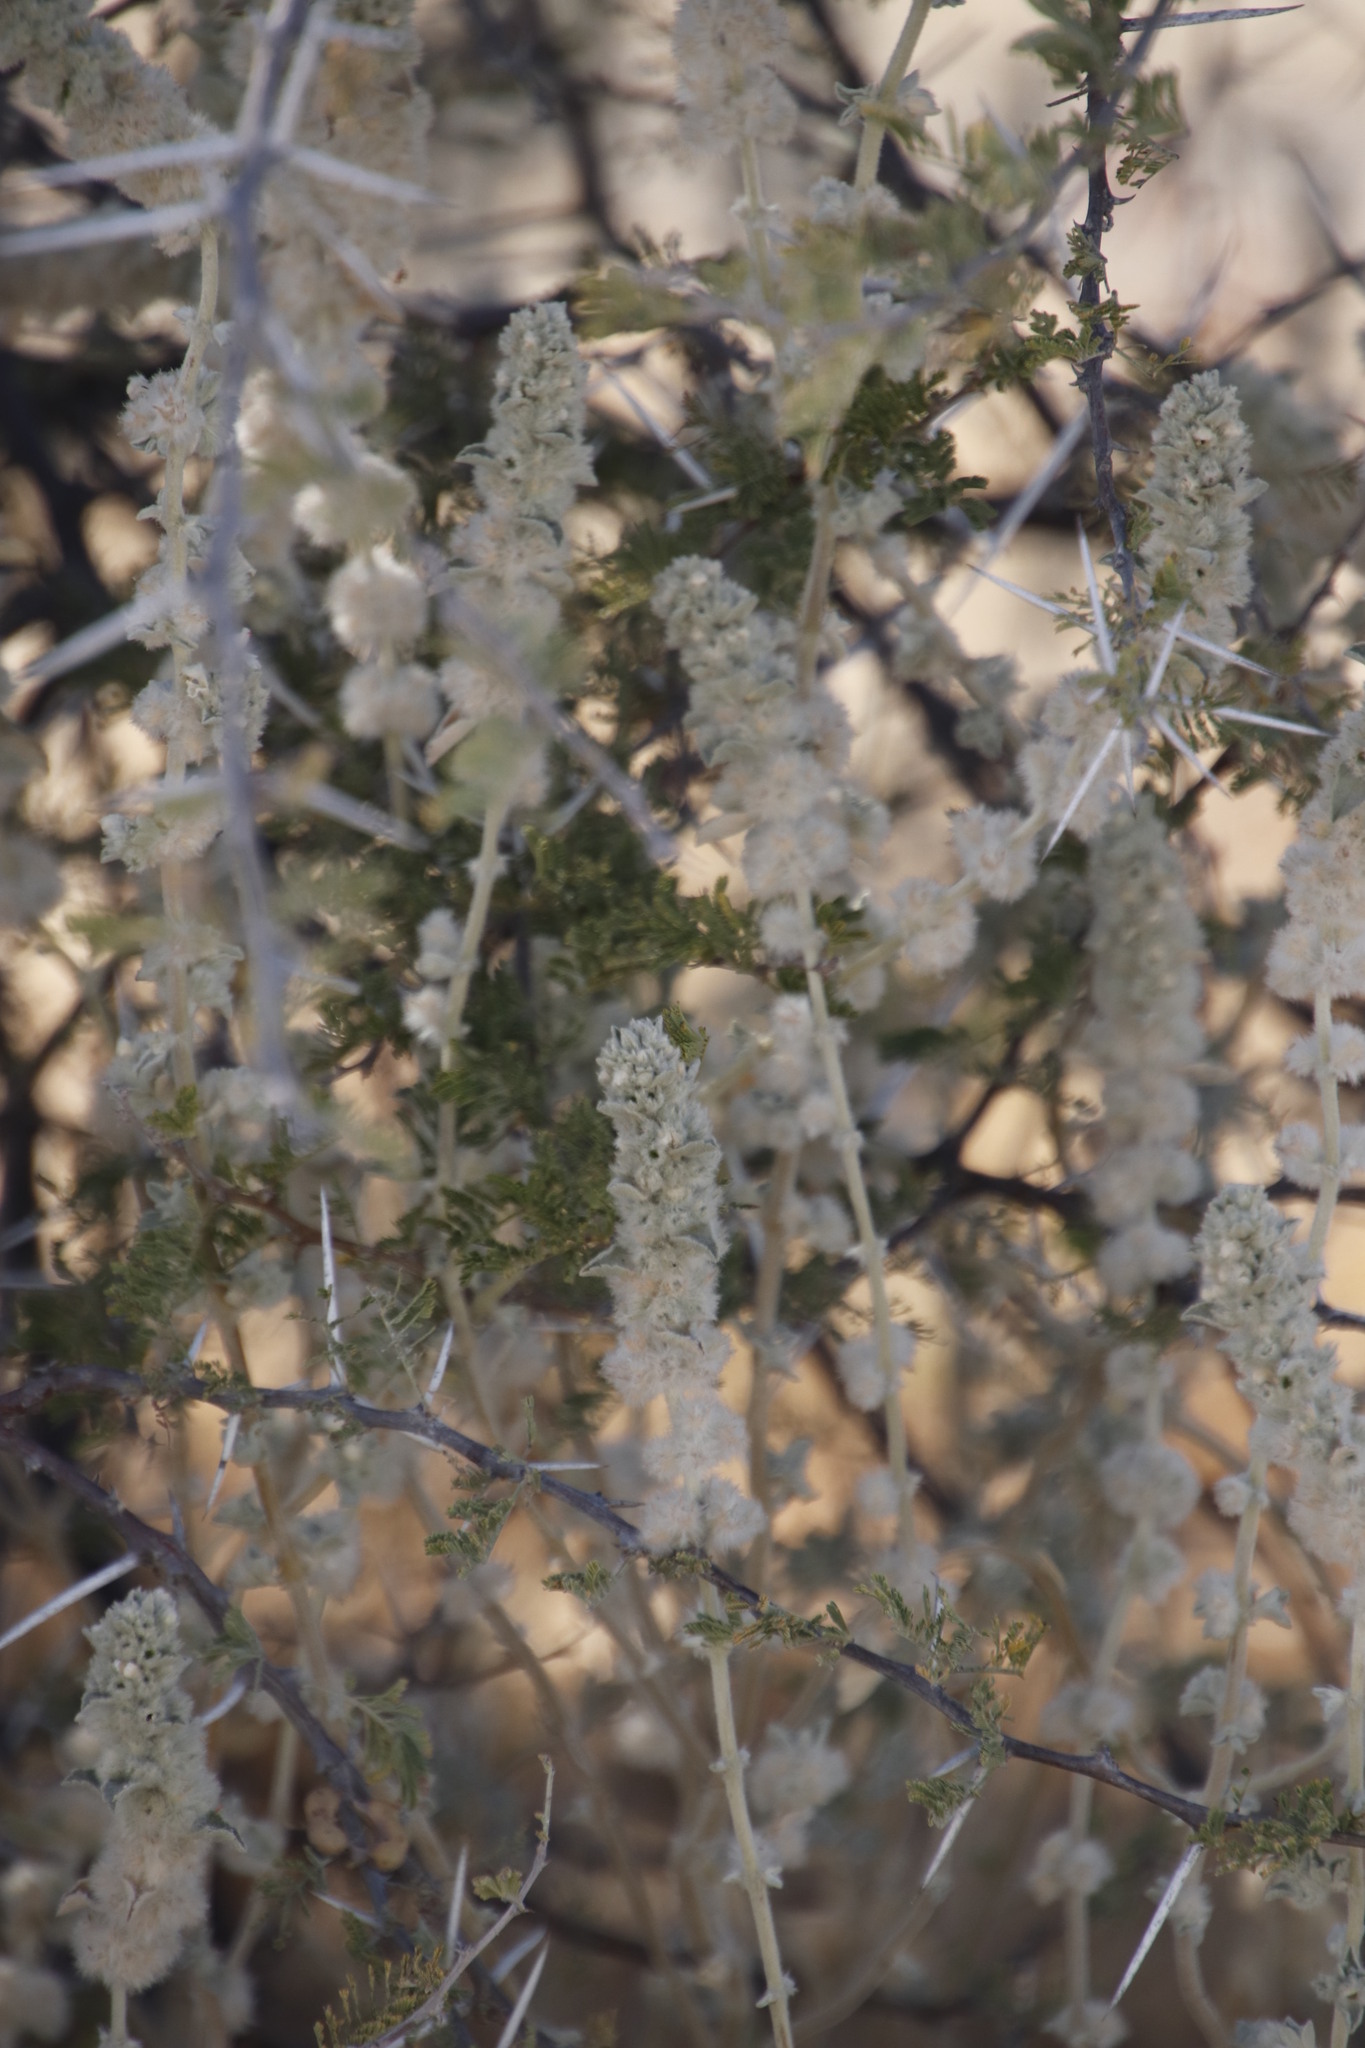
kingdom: Plantae
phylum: Tracheophyta
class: Magnoliopsida
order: Lamiales
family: Lamiaceae
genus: Leucas
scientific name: Leucas pechuelii
